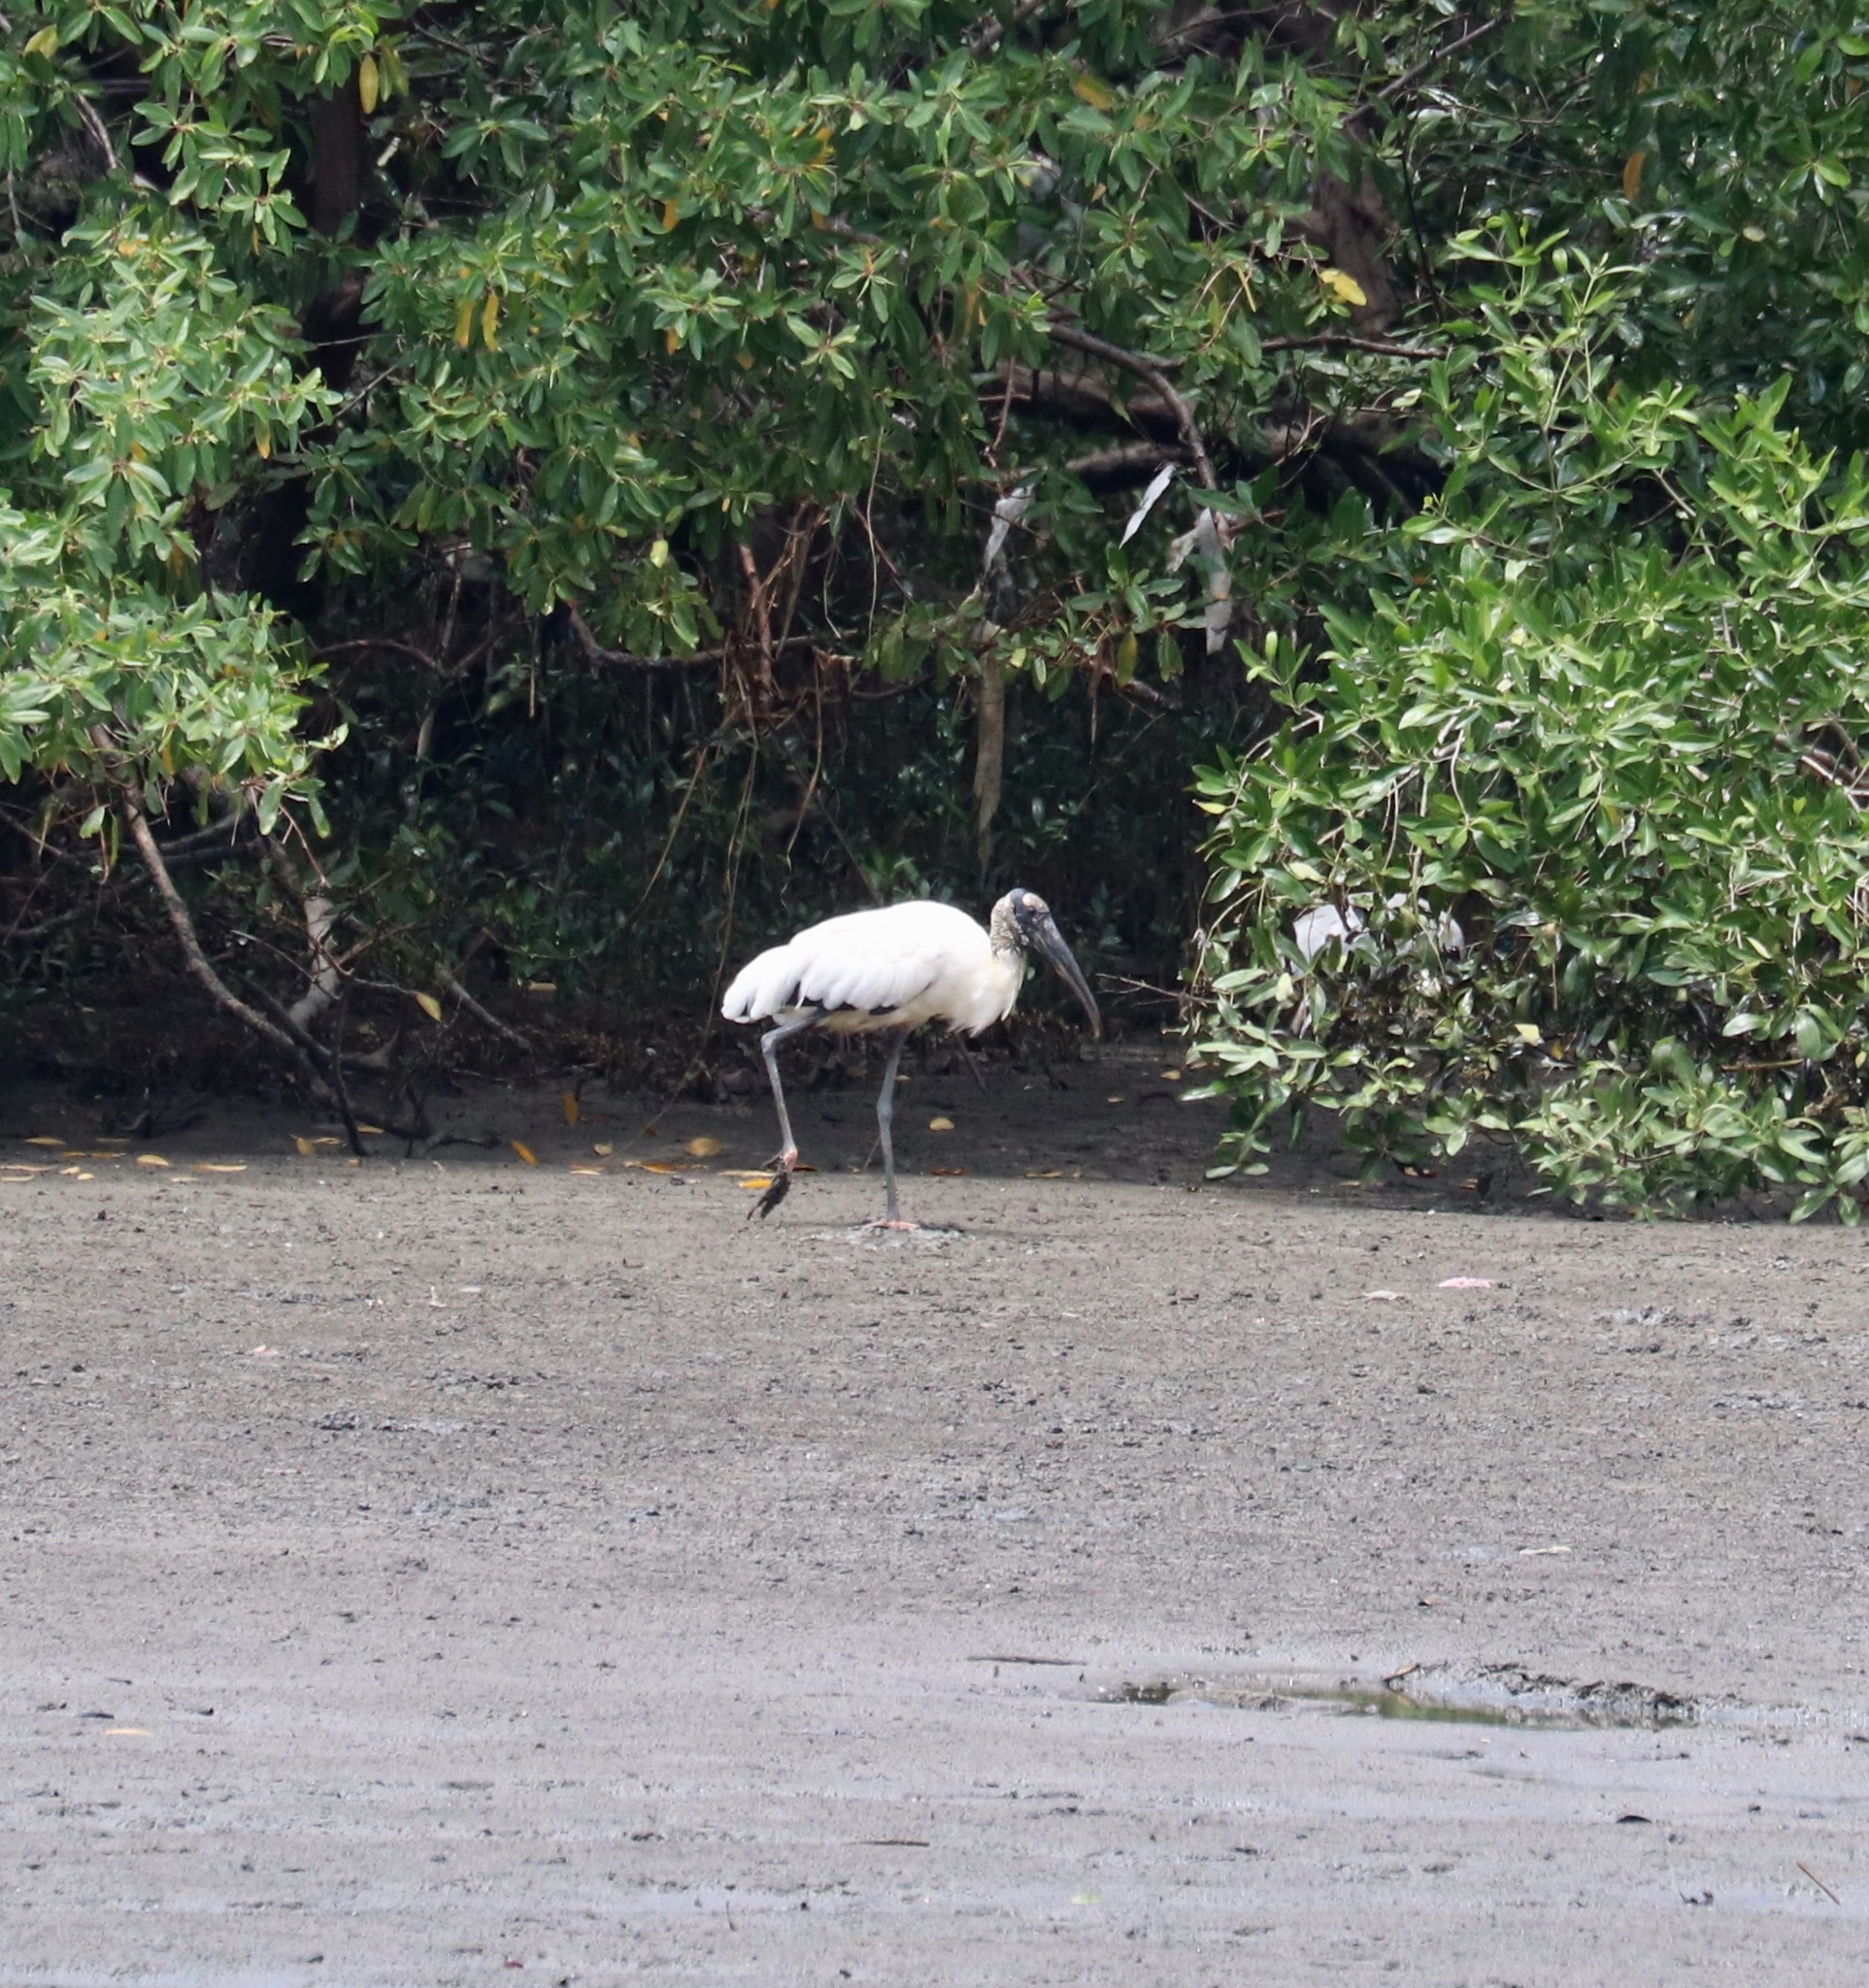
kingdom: Animalia
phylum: Chordata
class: Aves
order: Ciconiiformes
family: Ciconiidae
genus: Mycteria
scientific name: Mycteria americana
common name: Wood stork
